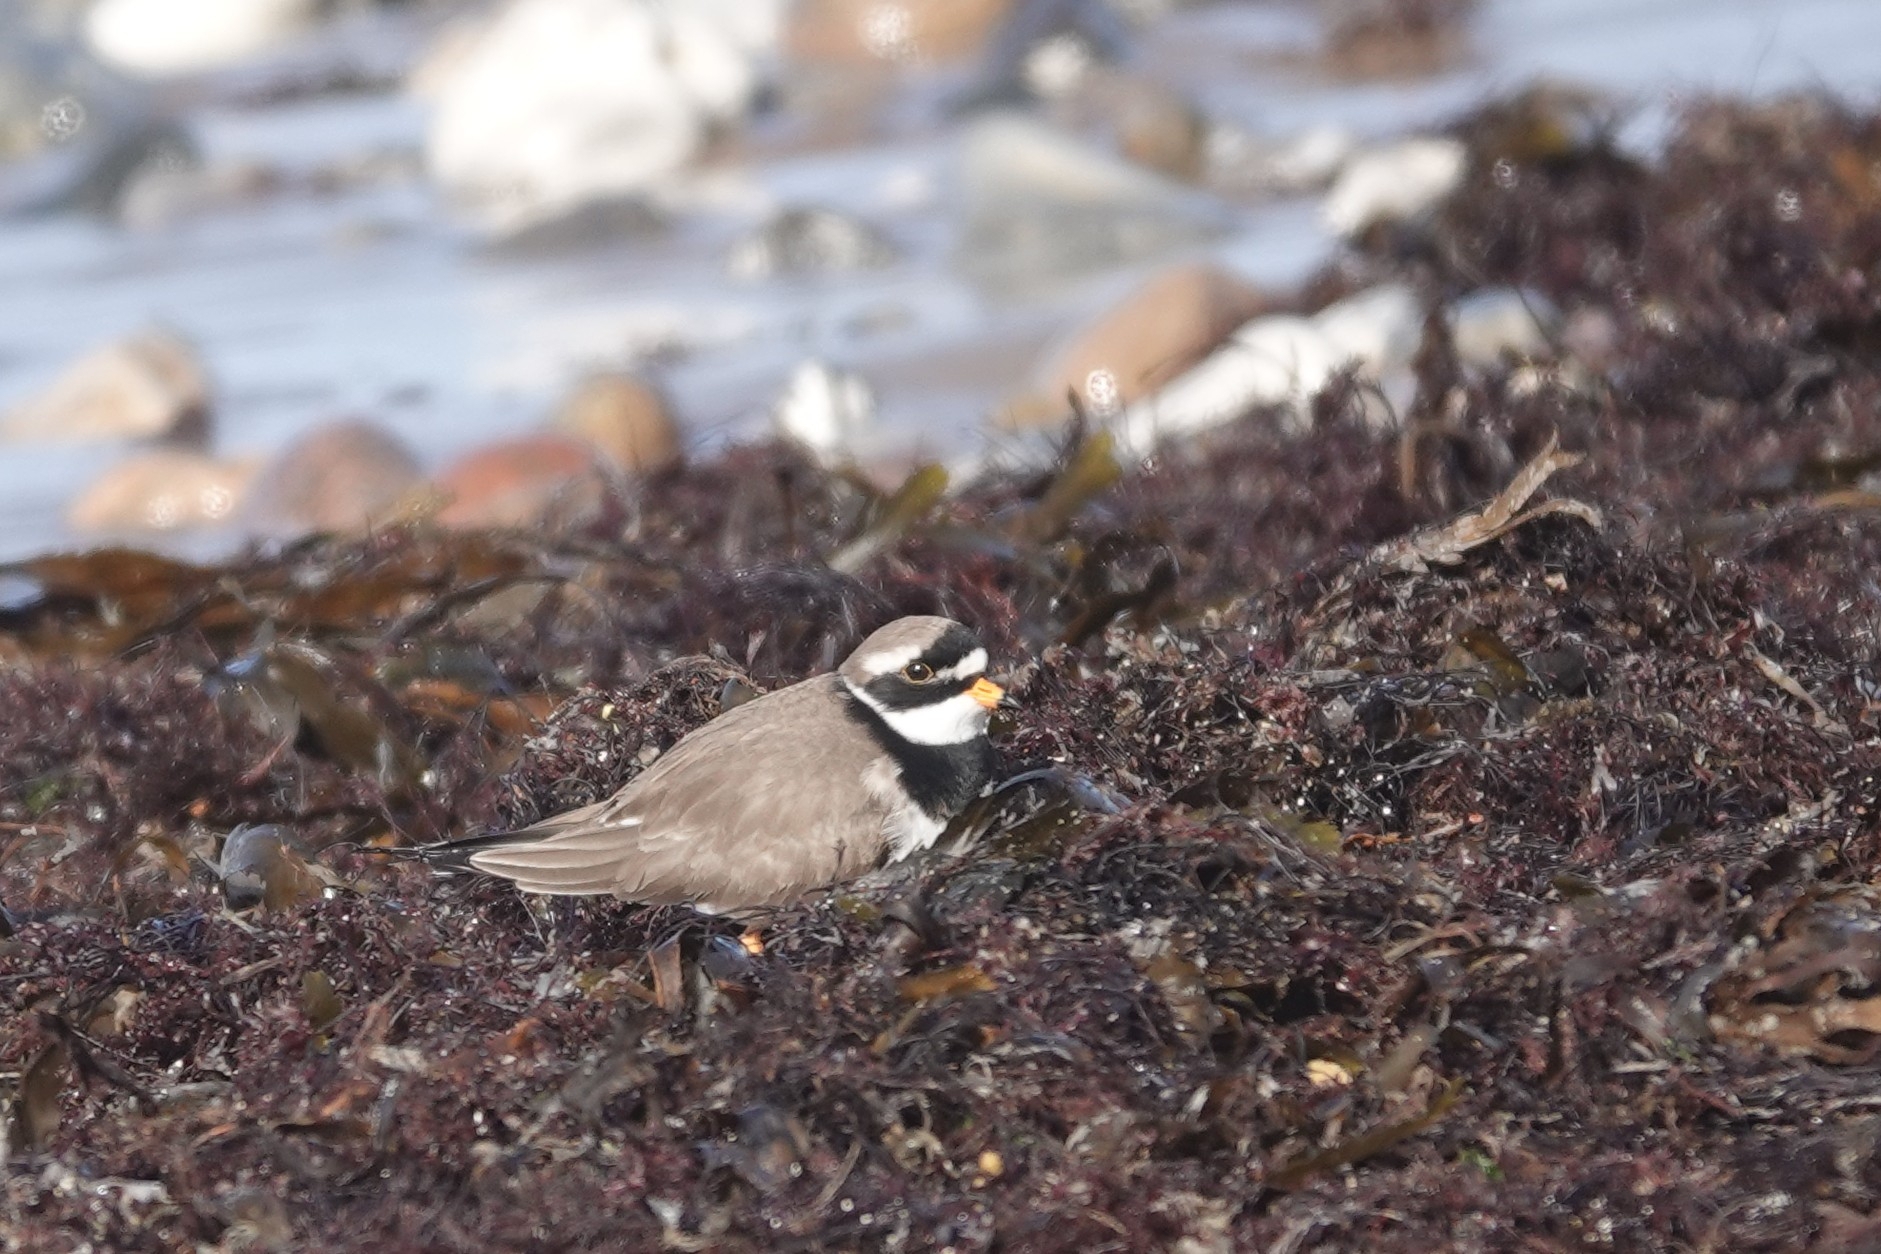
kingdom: Animalia
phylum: Chordata
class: Aves
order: Charadriiformes
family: Charadriidae
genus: Charadrius
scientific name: Charadrius hiaticula
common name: Common ringed plover
